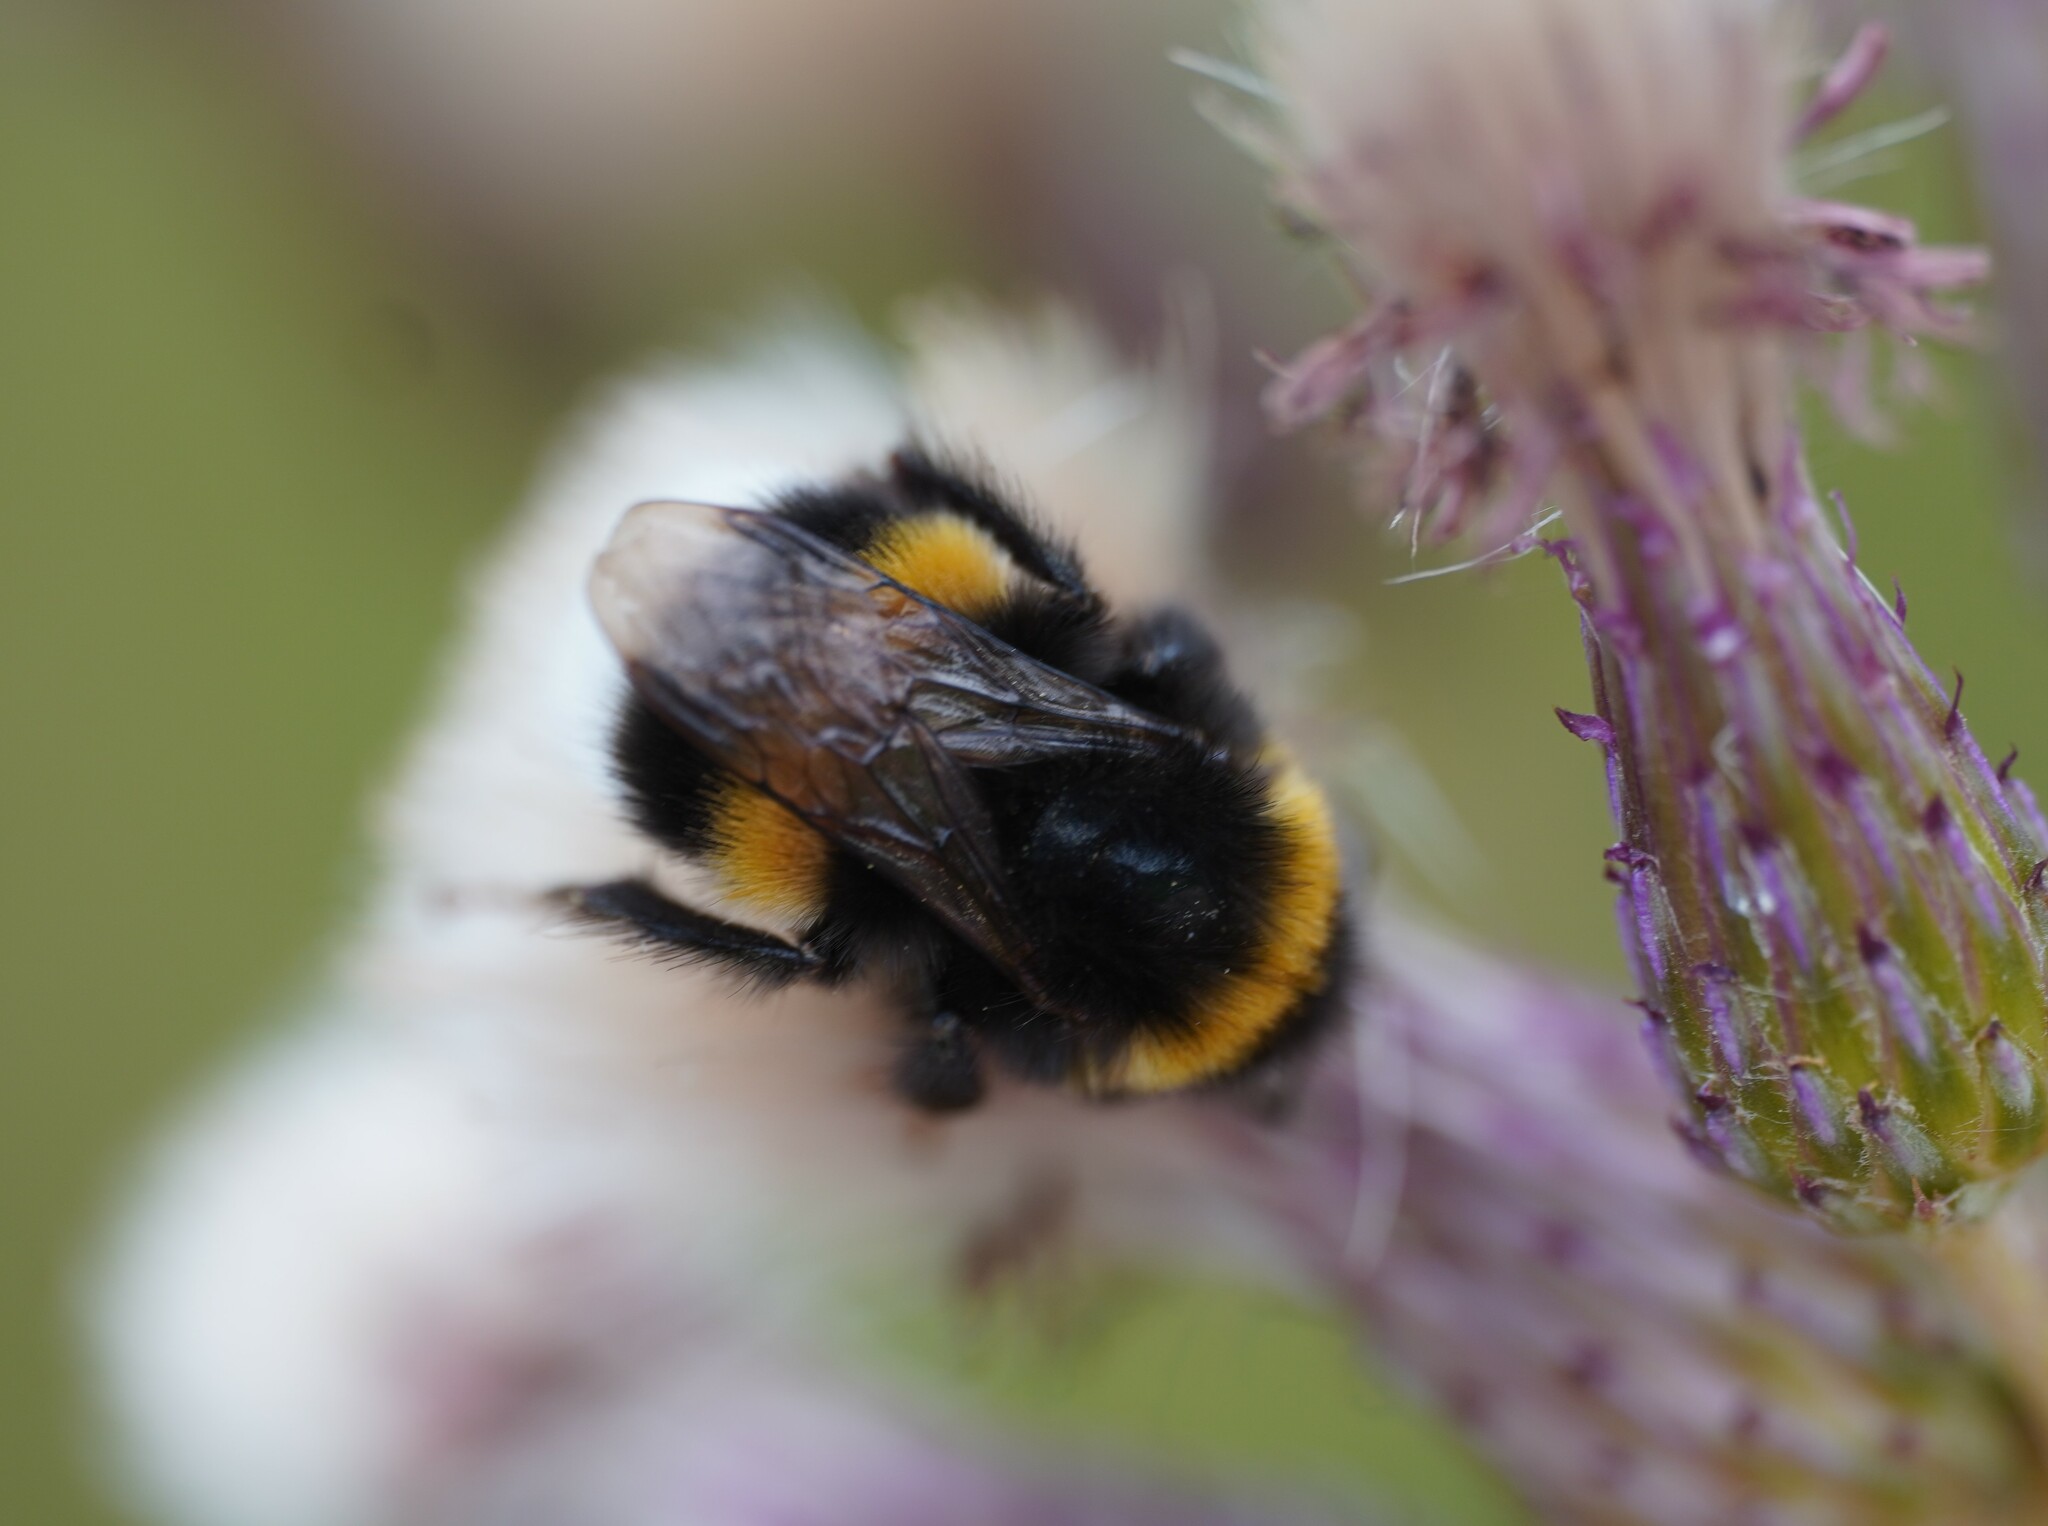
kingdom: Animalia
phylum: Arthropoda
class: Insecta
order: Hymenoptera
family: Apidae
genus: Bombus
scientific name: Bombus
